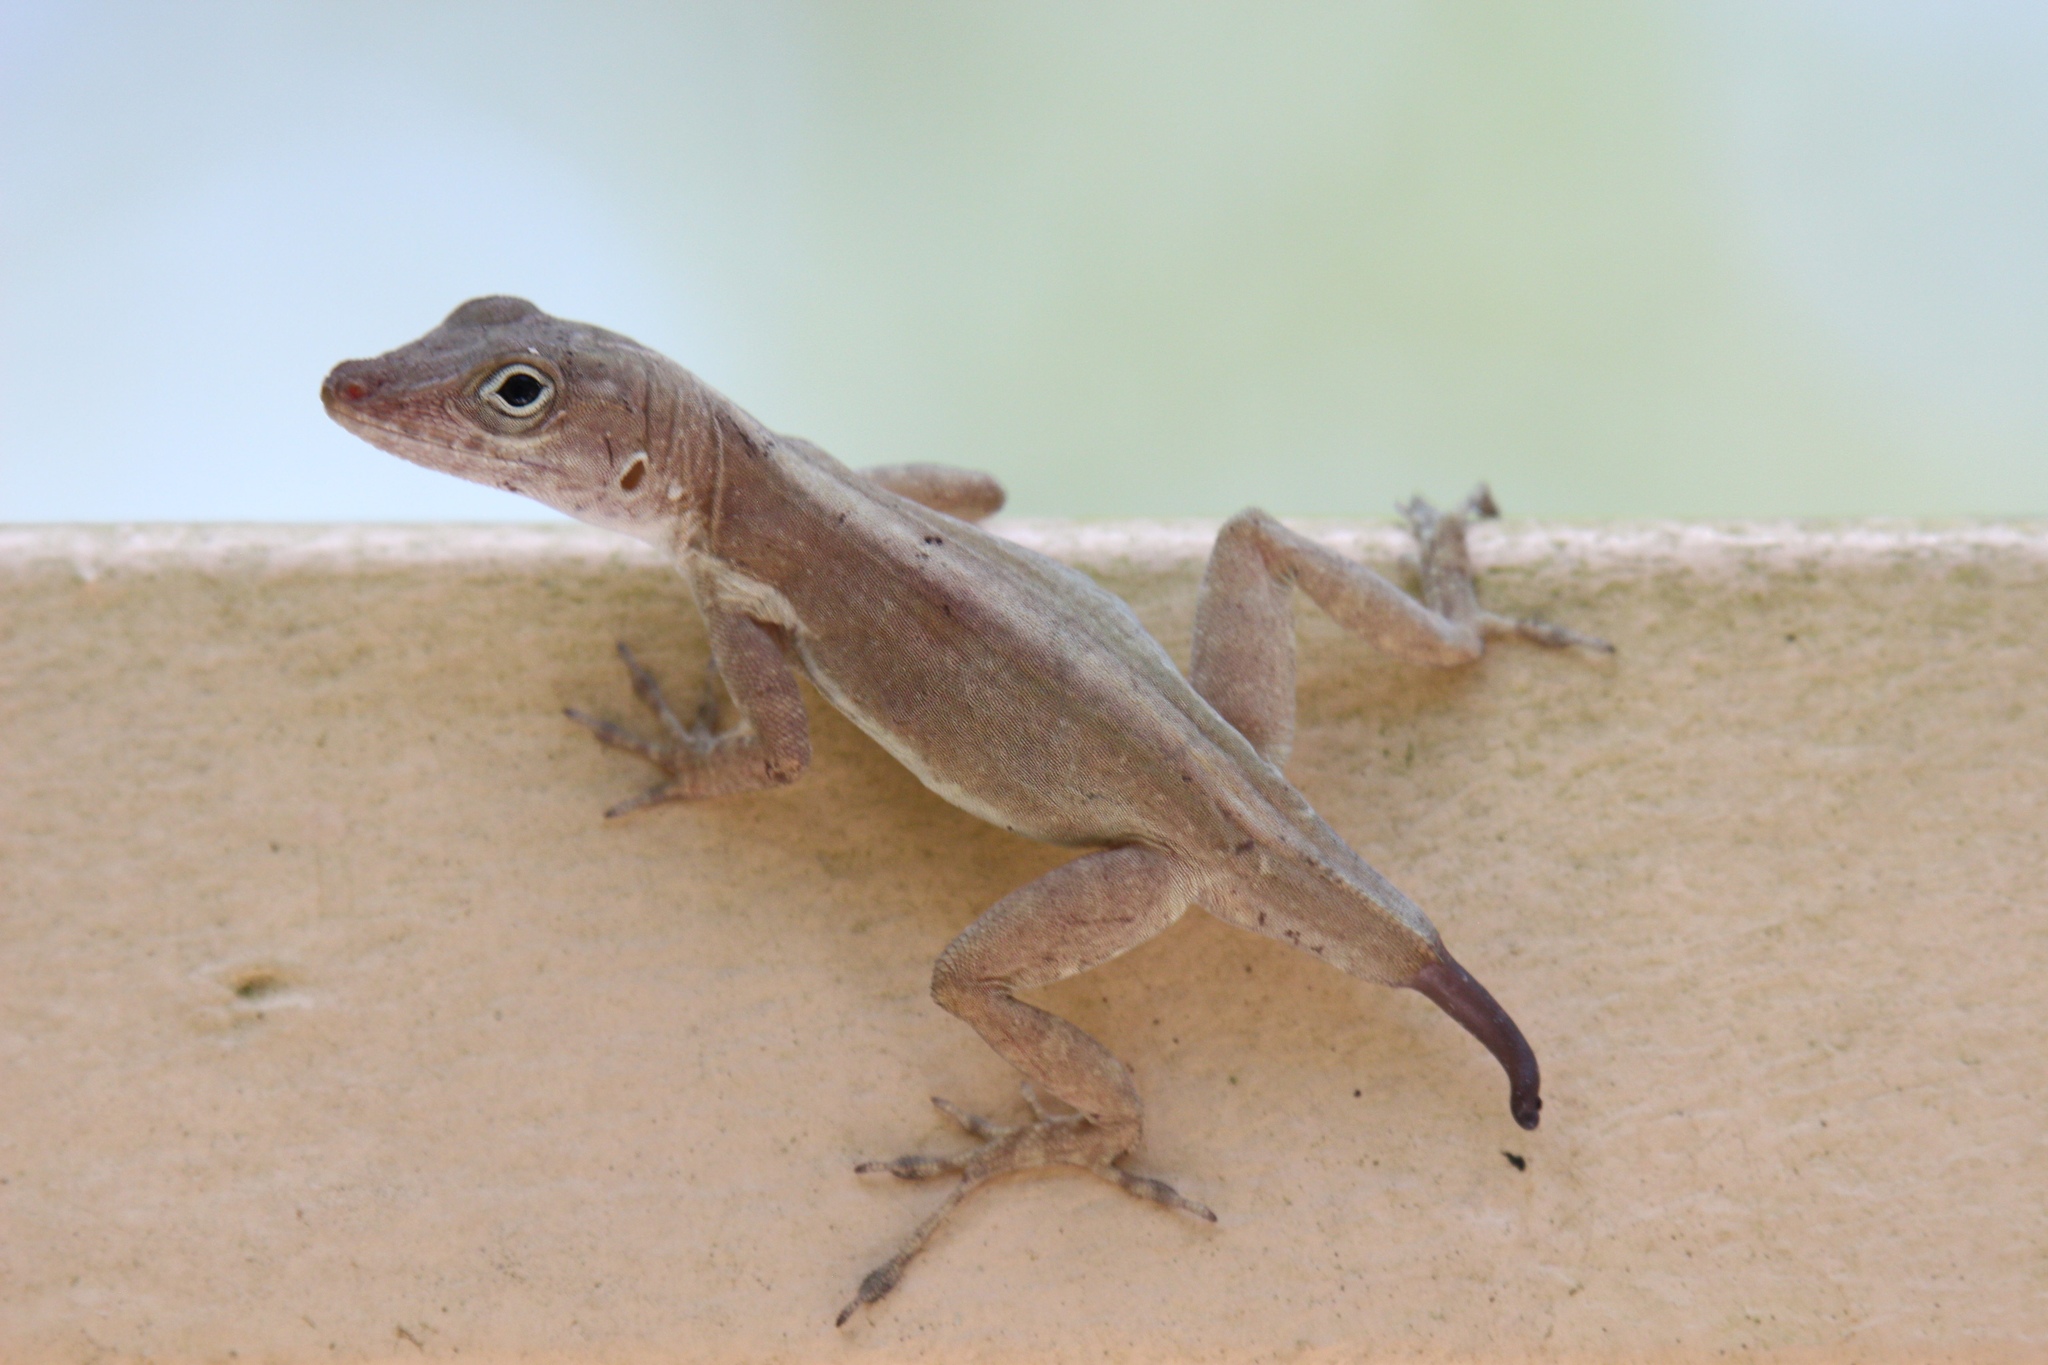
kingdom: Animalia
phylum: Chordata
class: Squamata
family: Dactyloidae
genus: Anolis
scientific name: Anolis cristatellus
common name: Crested anole
